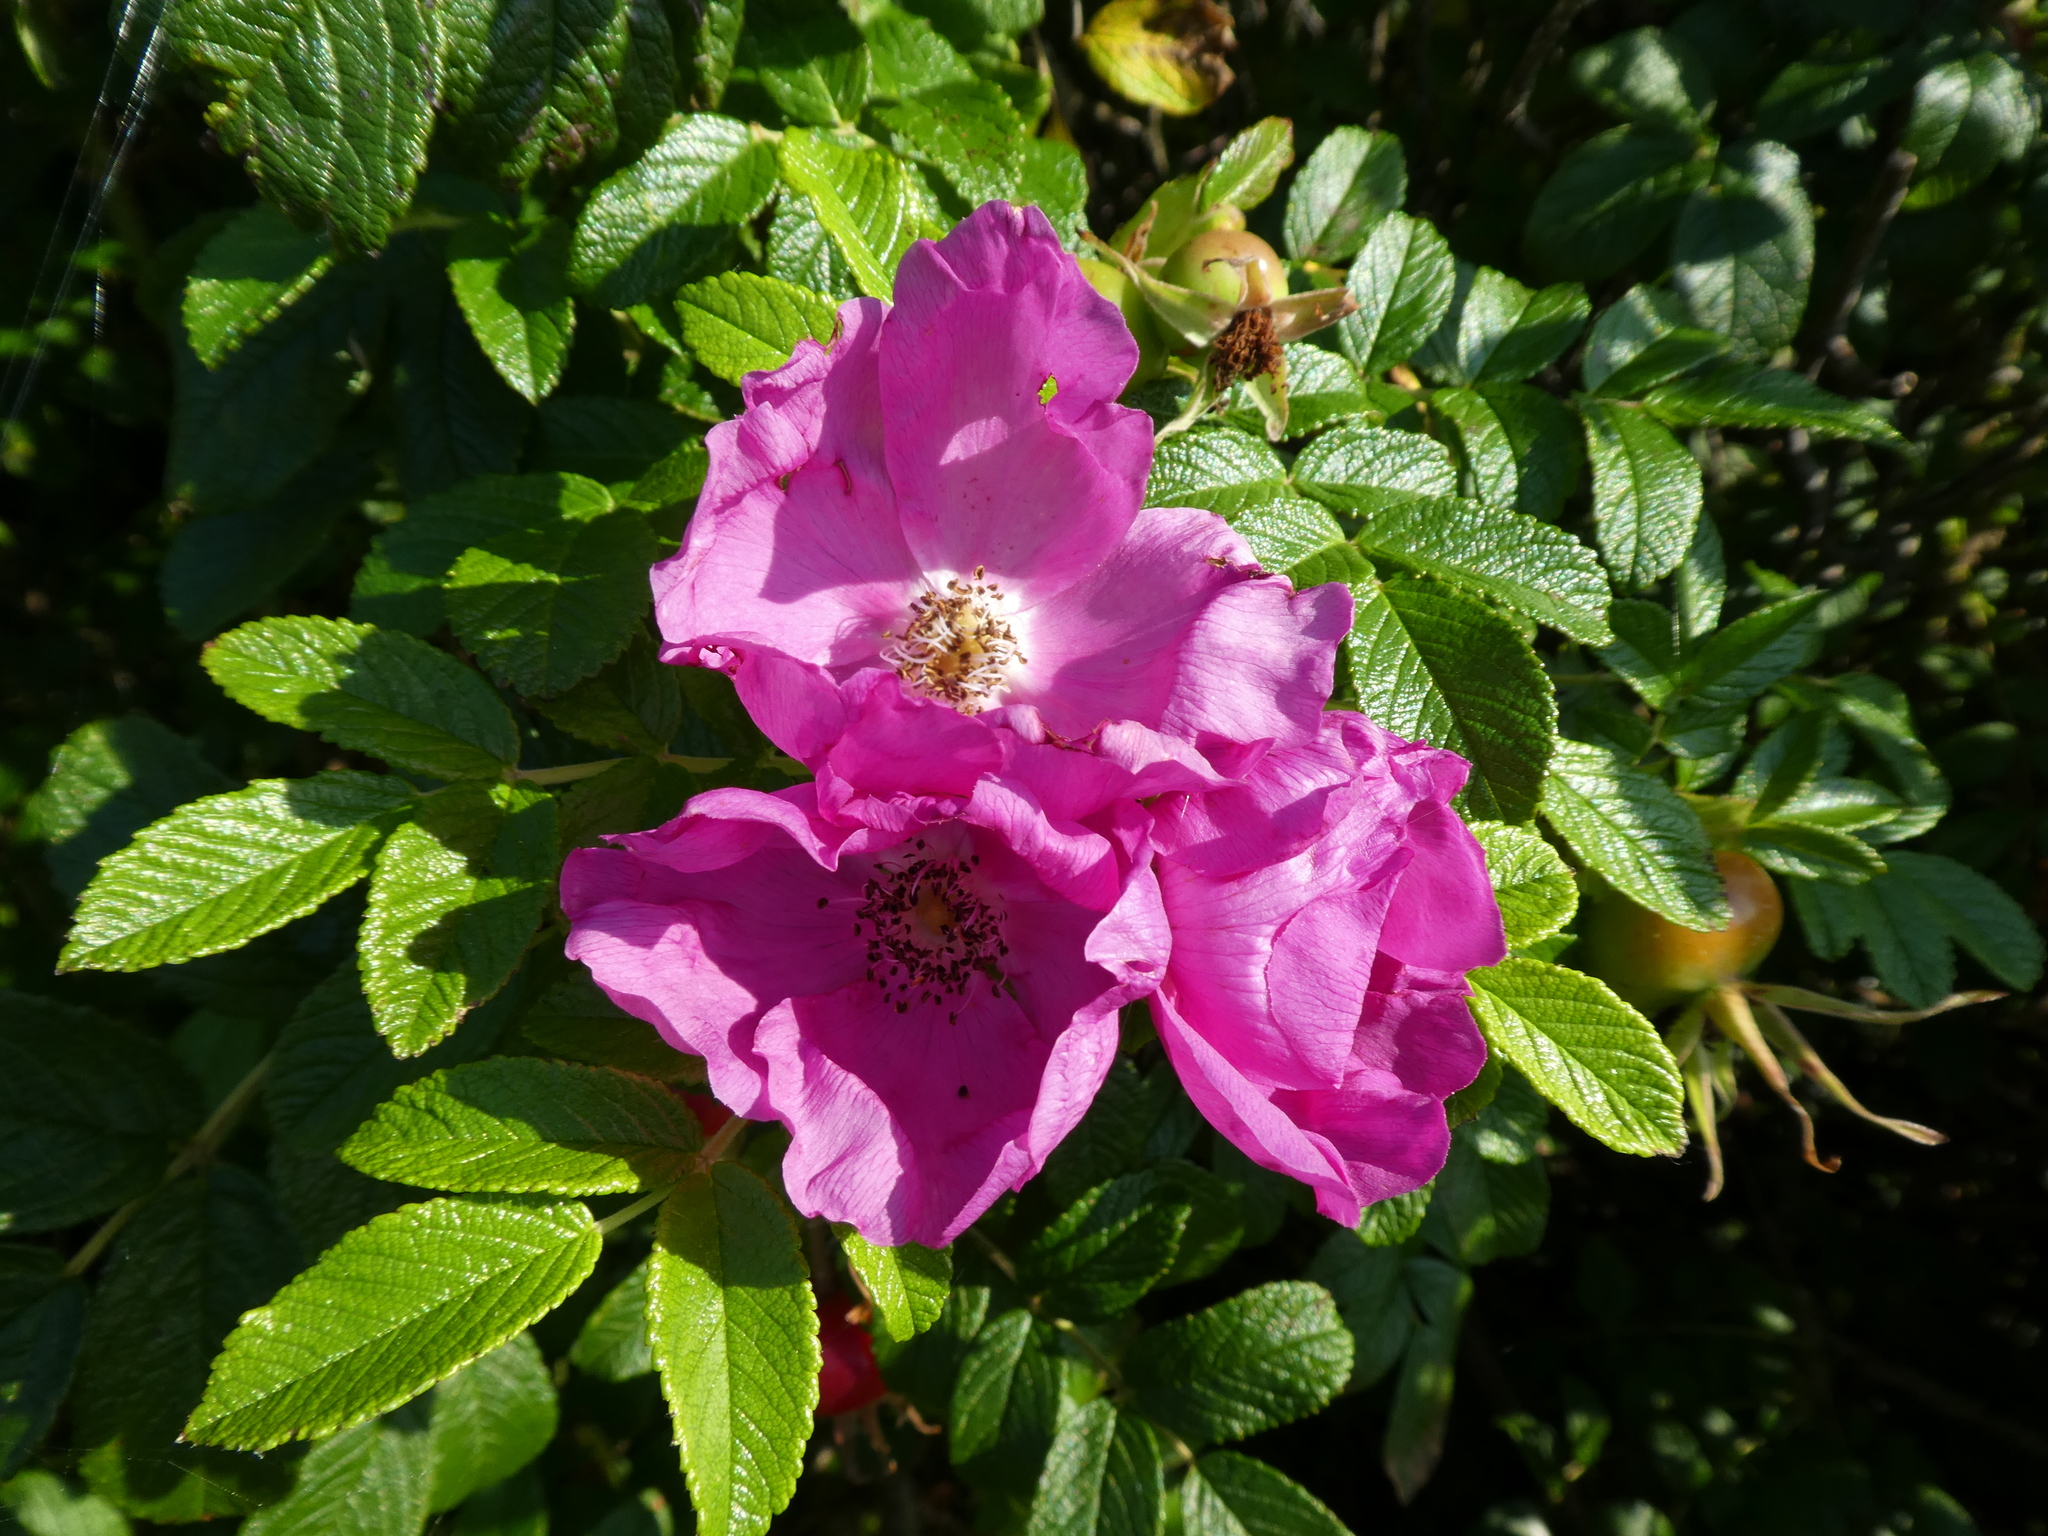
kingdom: Plantae
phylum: Tracheophyta
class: Magnoliopsida
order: Rosales
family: Rosaceae
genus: Rosa
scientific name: Rosa rugosa
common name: Japanese rose
